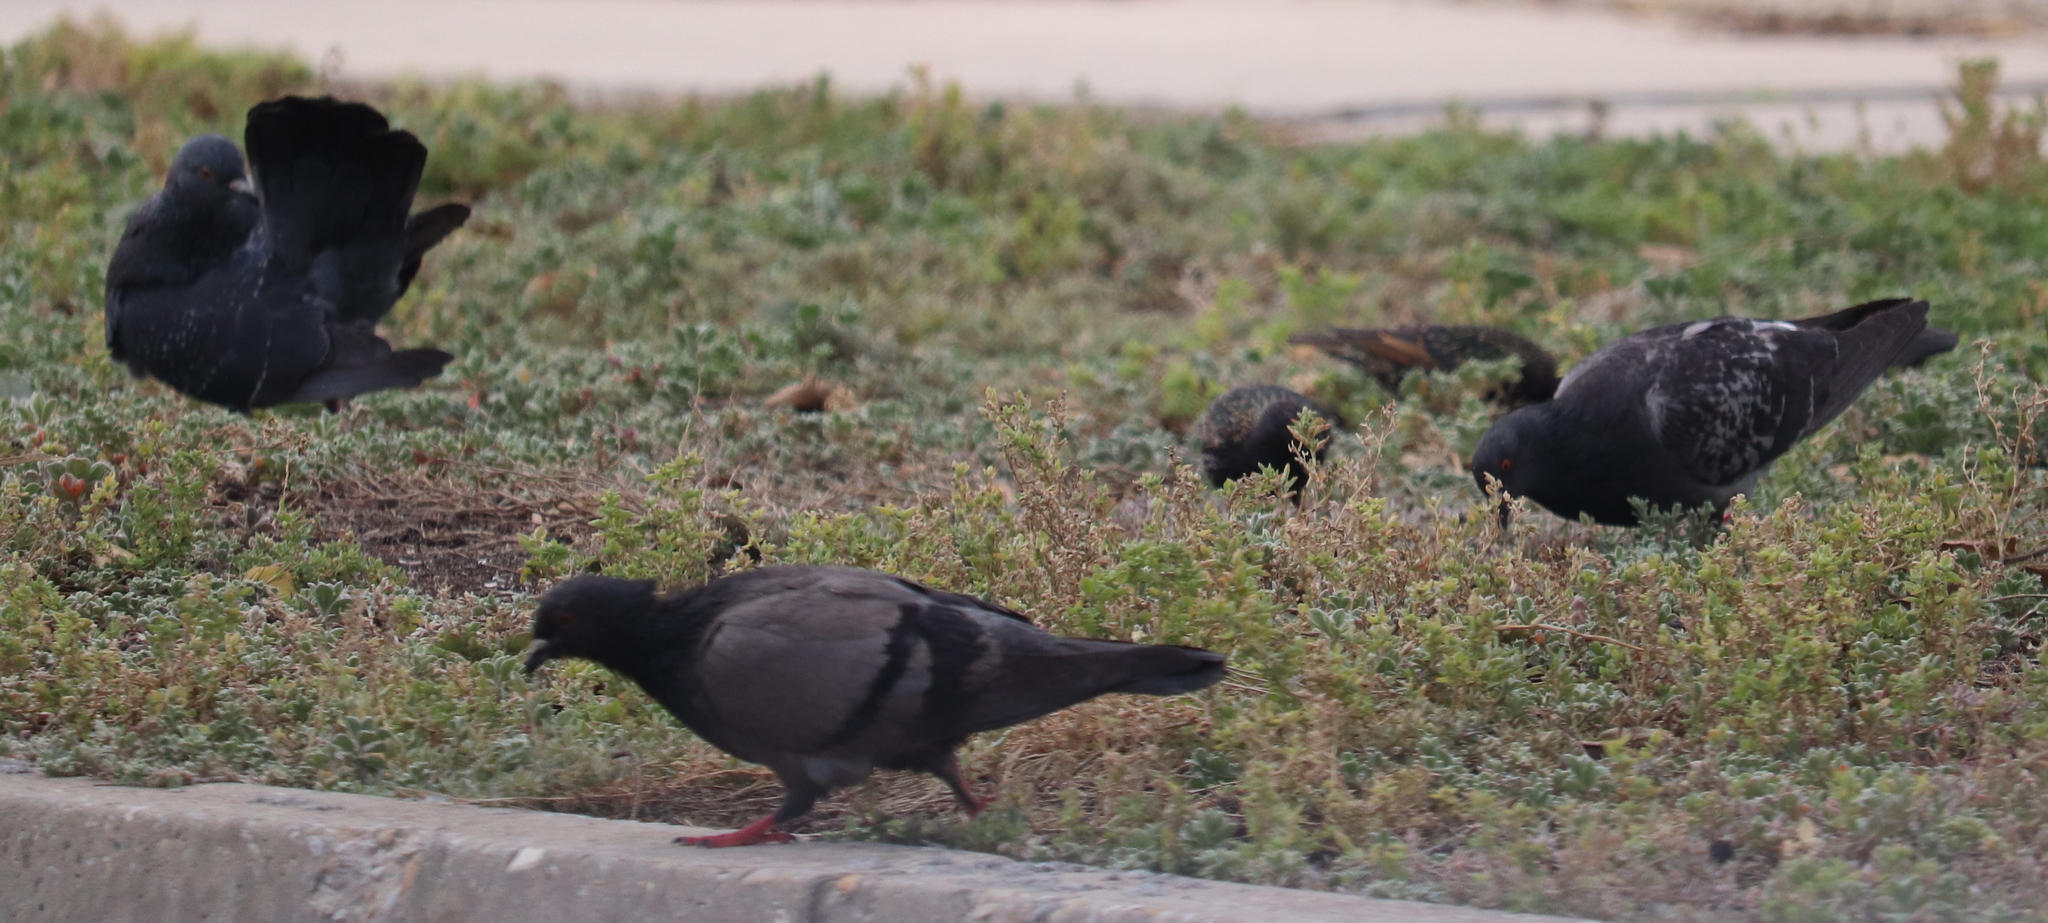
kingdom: Animalia
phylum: Chordata
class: Aves
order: Columbiformes
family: Columbidae
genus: Columba
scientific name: Columba livia
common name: Rock pigeon
